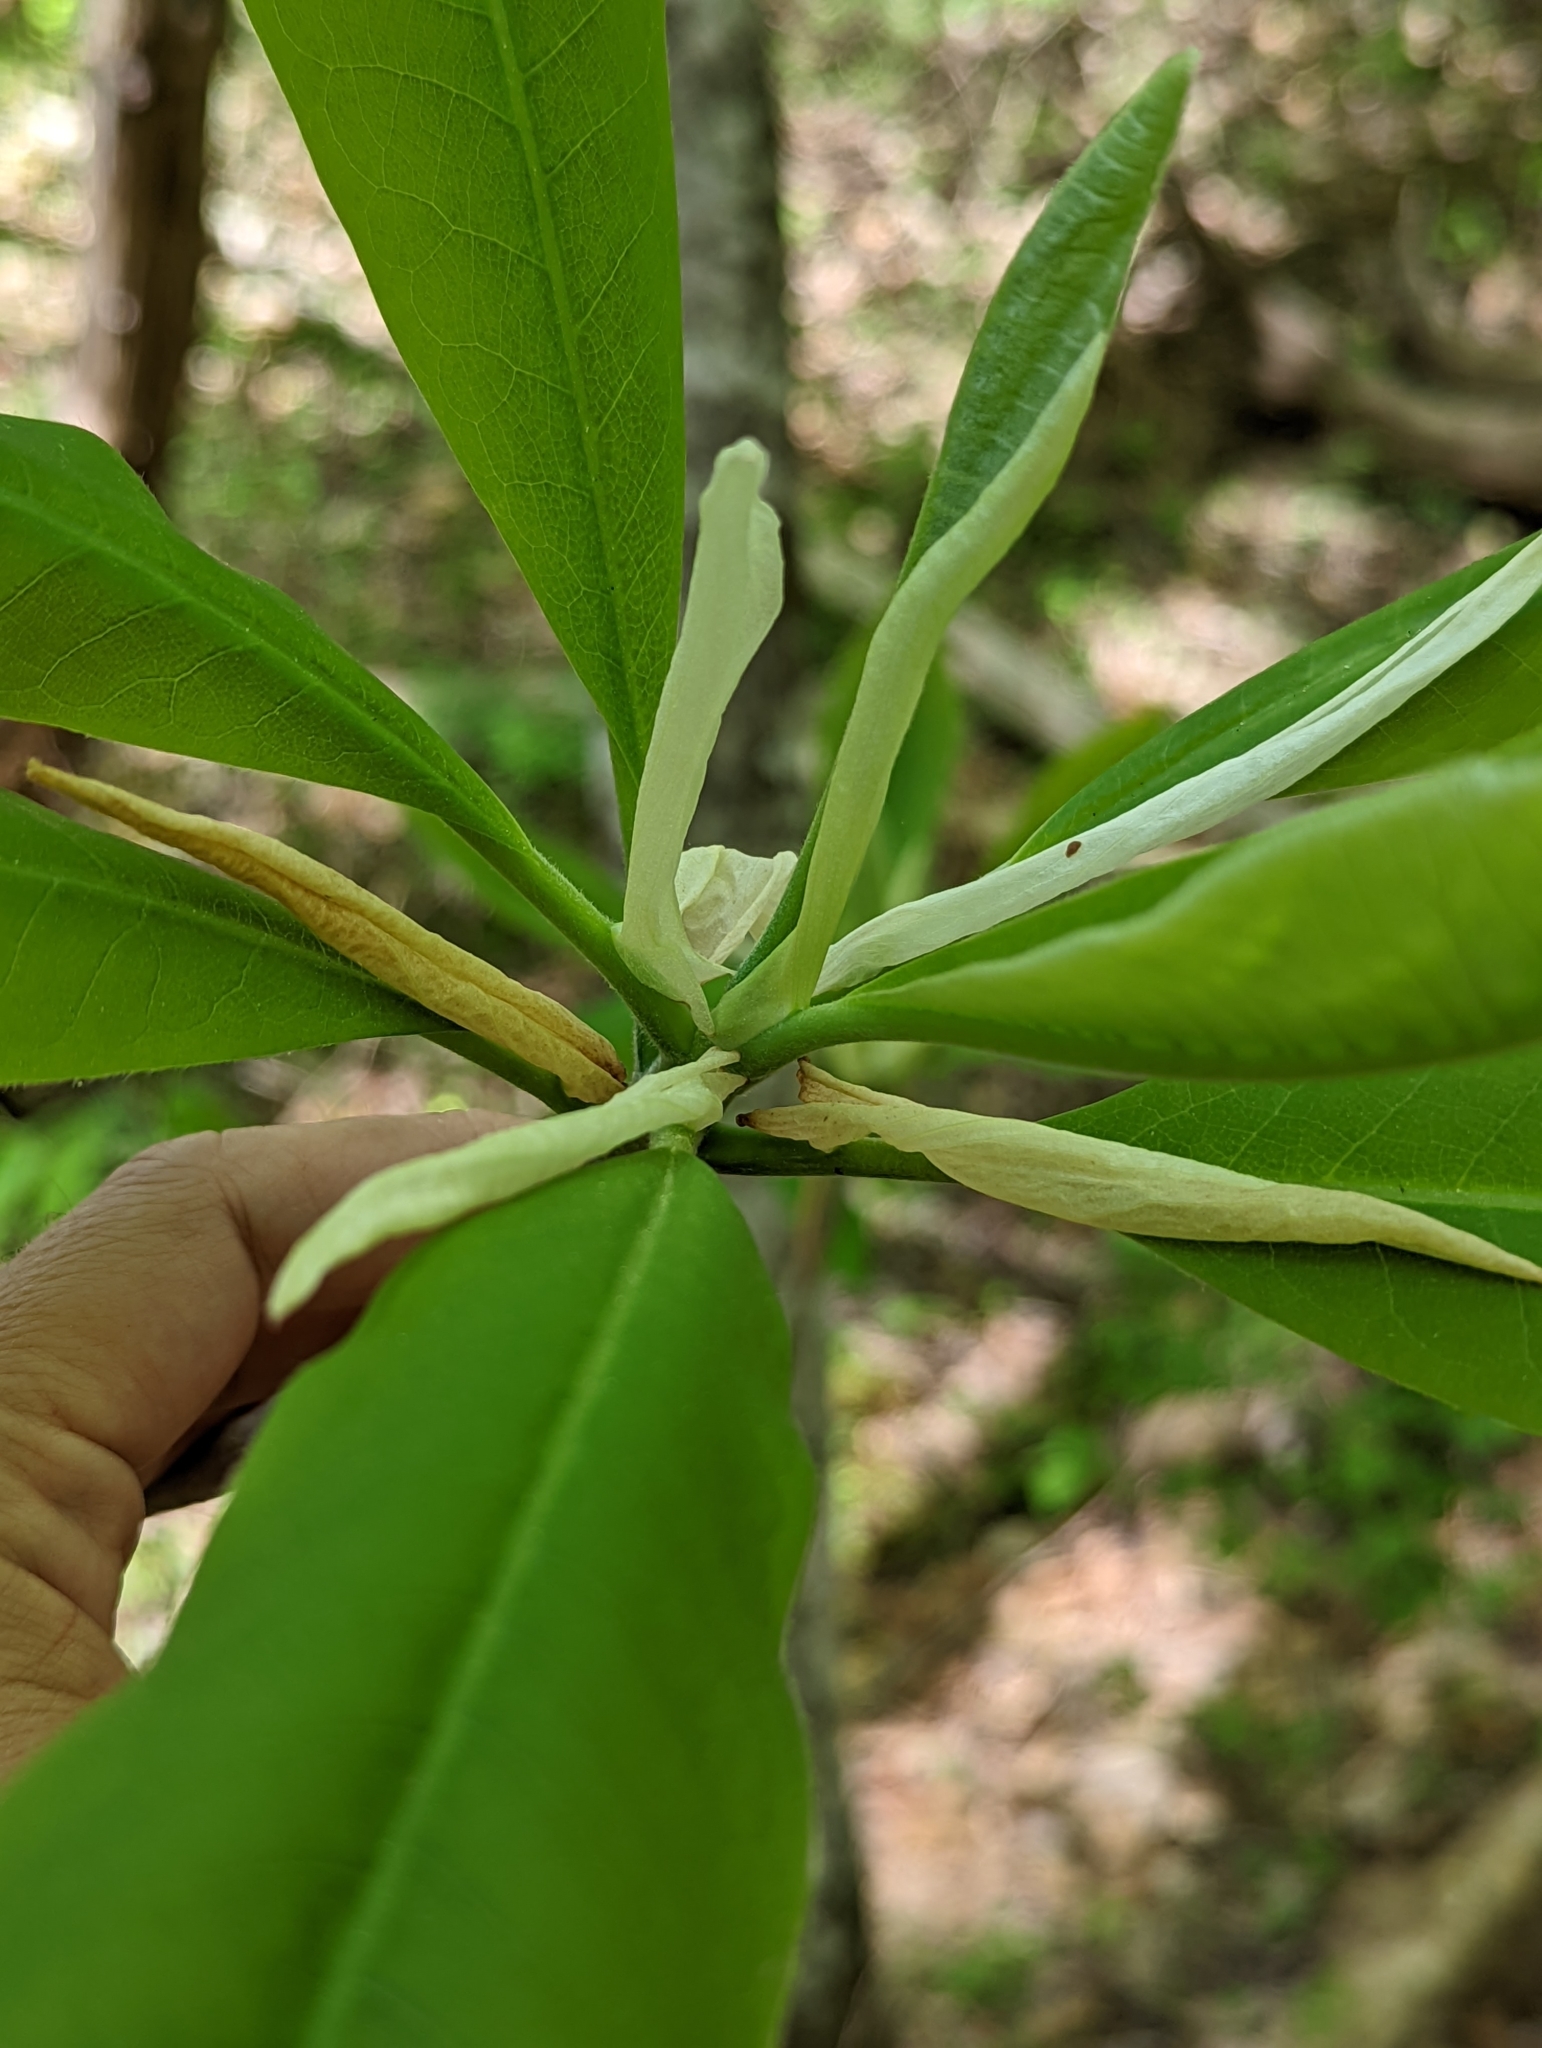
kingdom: Plantae
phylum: Tracheophyta
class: Magnoliopsida
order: Magnoliales
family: Magnoliaceae
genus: Magnolia
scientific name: Magnolia tripetala
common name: Umbrella magnolia
